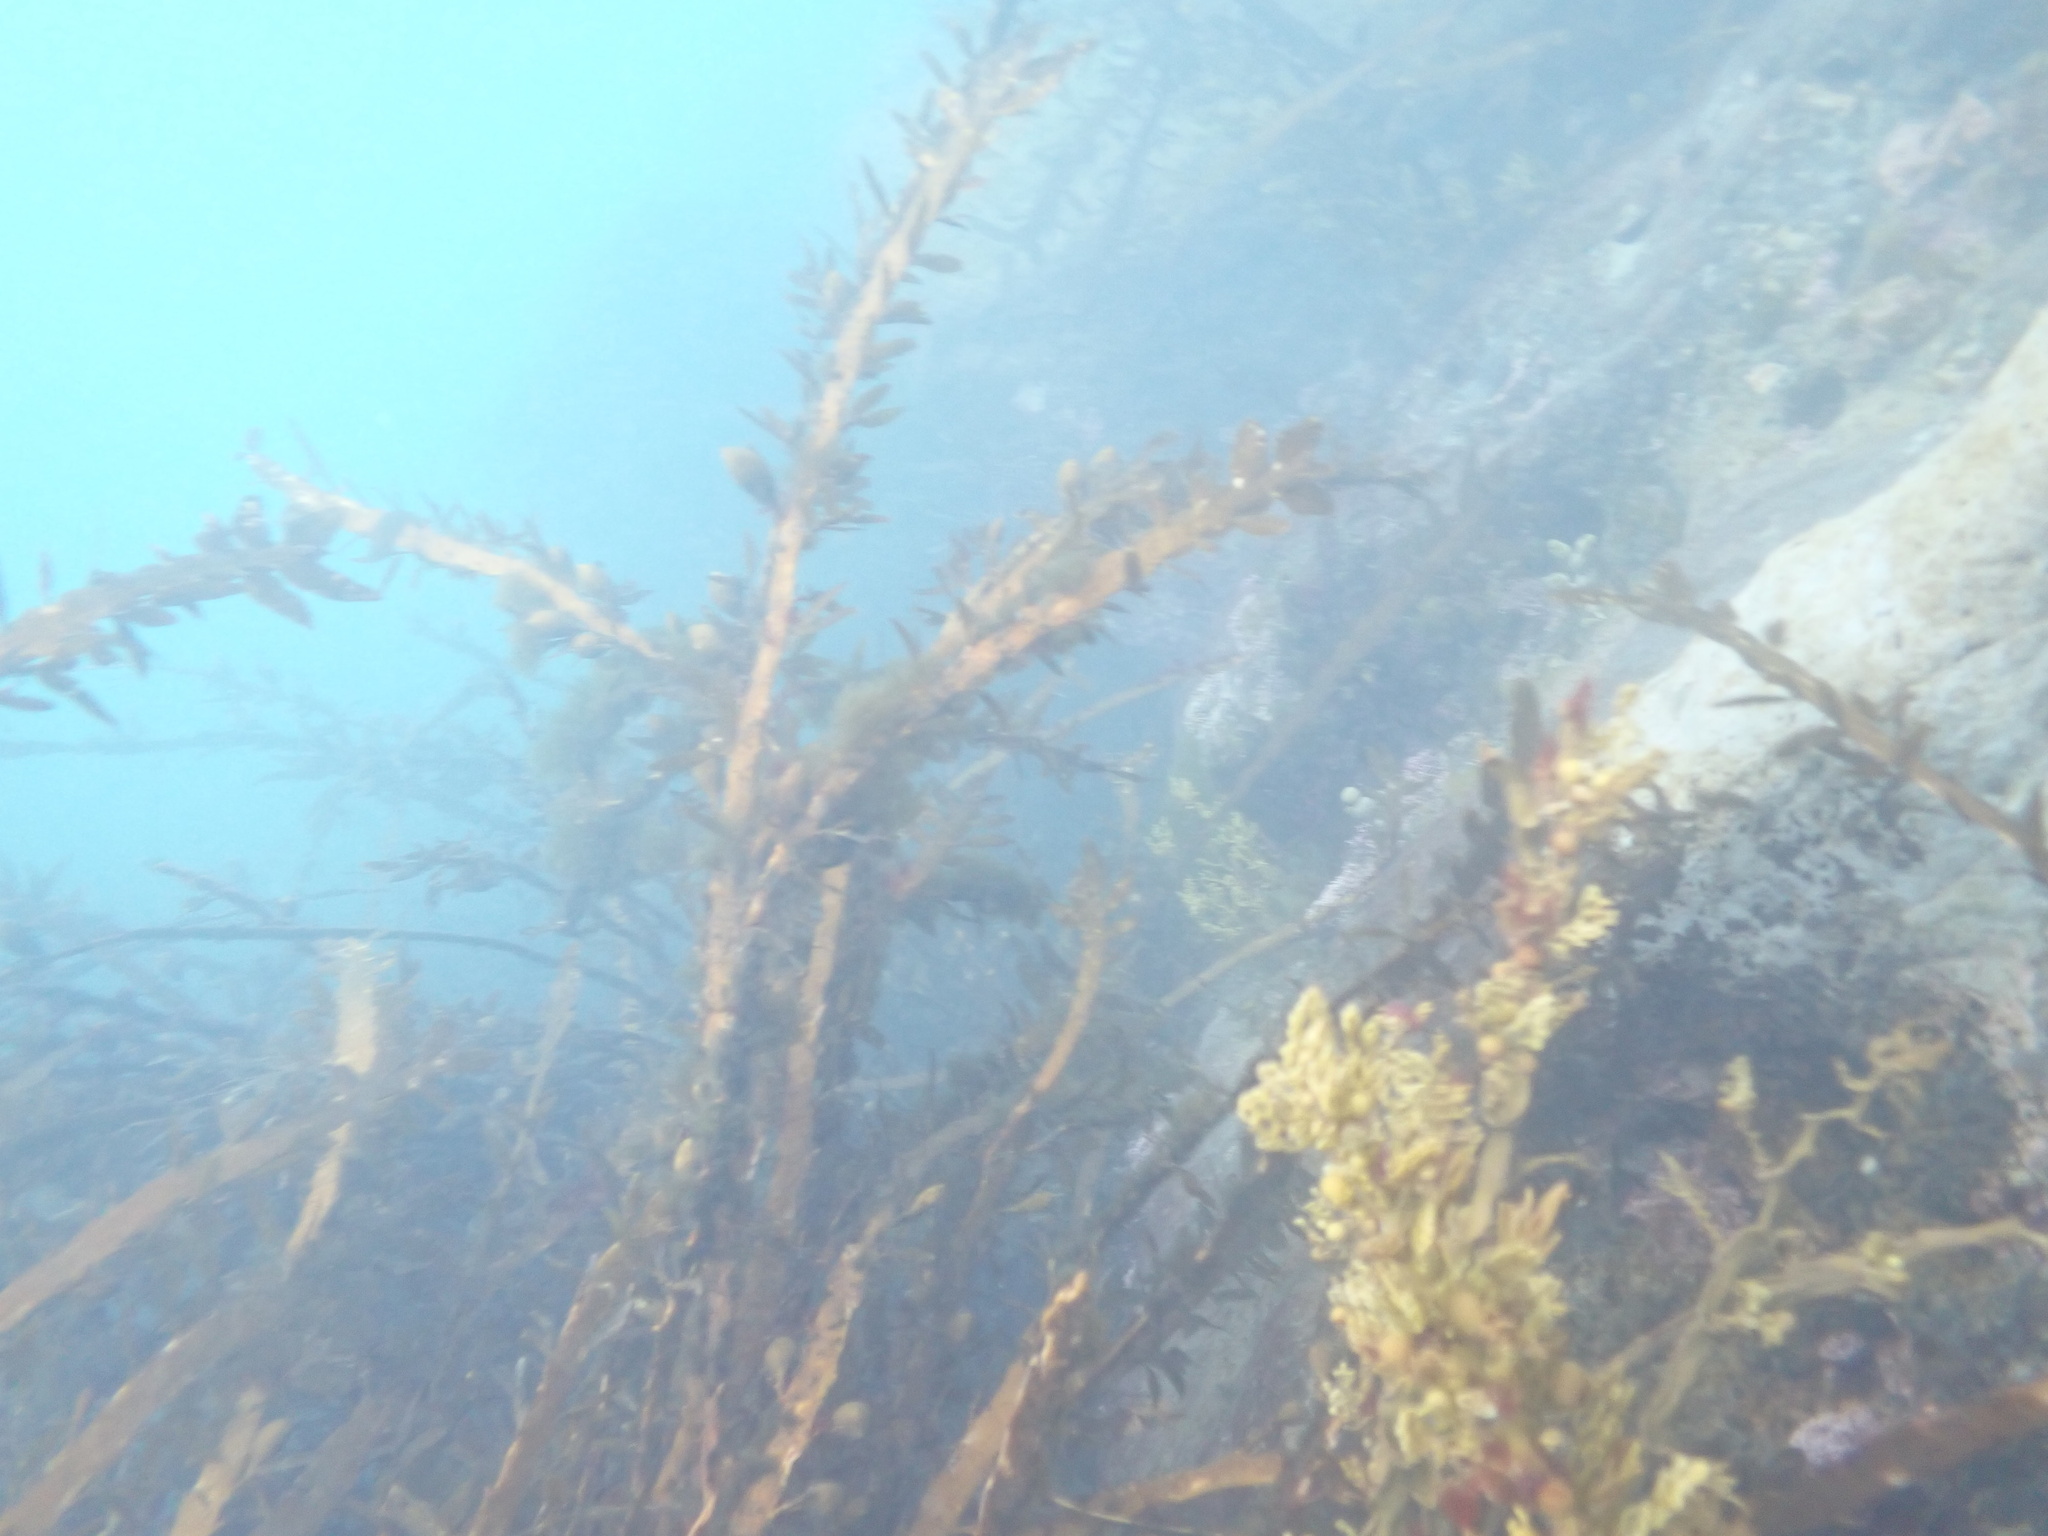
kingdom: Chromista
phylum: Ochrophyta
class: Phaeophyceae
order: Fucales
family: Sargassaceae
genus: Carpophyllum
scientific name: Carpophyllum maschalocarpum
